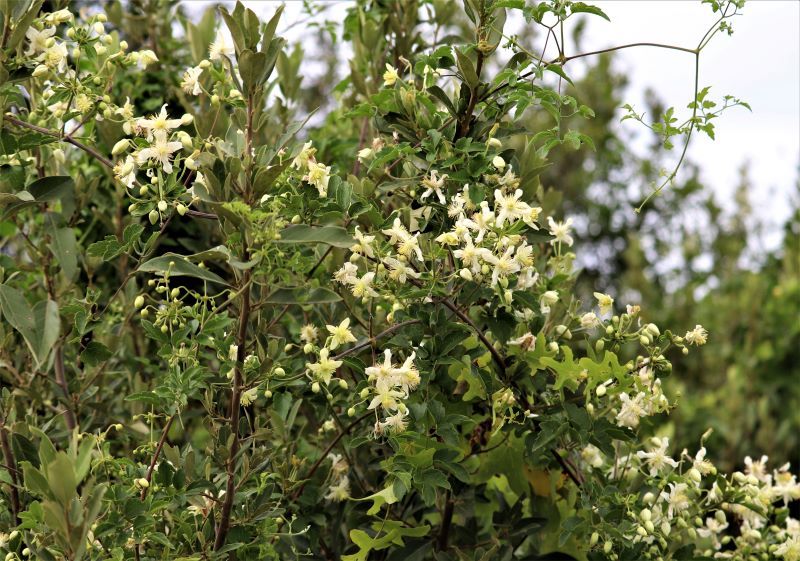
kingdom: Plantae
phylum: Tracheophyta
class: Magnoliopsida
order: Ranunculales
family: Ranunculaceae
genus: Clematis
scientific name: Clematis brachiata
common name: Traveler's-joy
